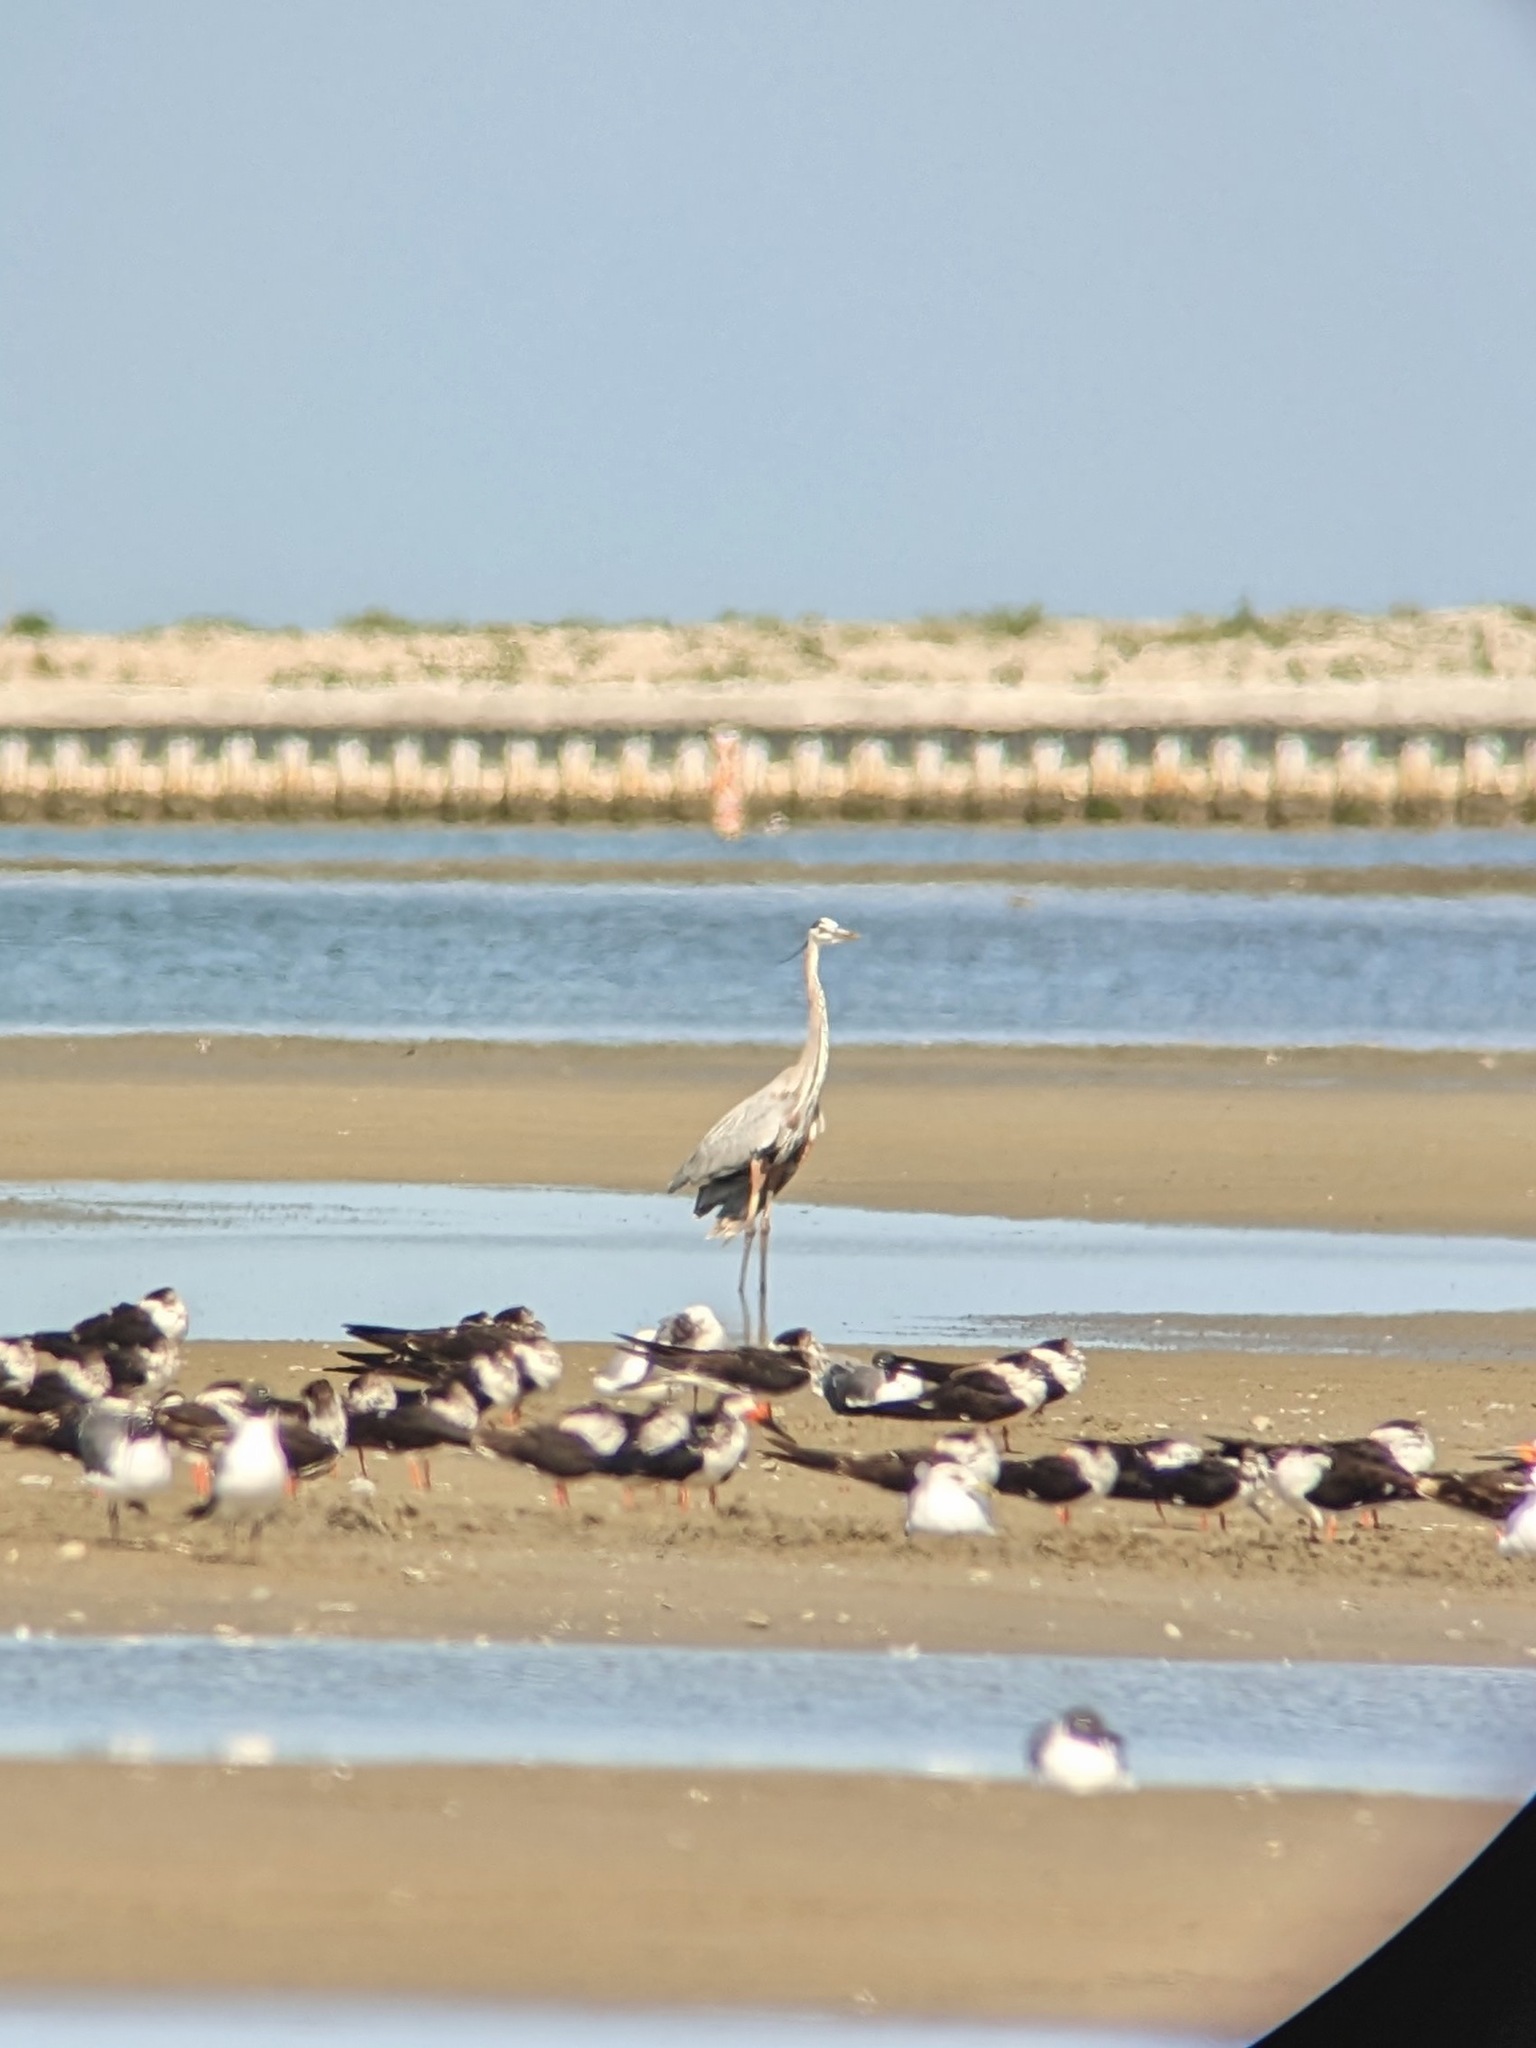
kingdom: Animalia
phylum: Chordata
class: Aves
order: Pelecaniformes
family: Ardeidae
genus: Ardea
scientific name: Ardea herodias
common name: Great blue heron
